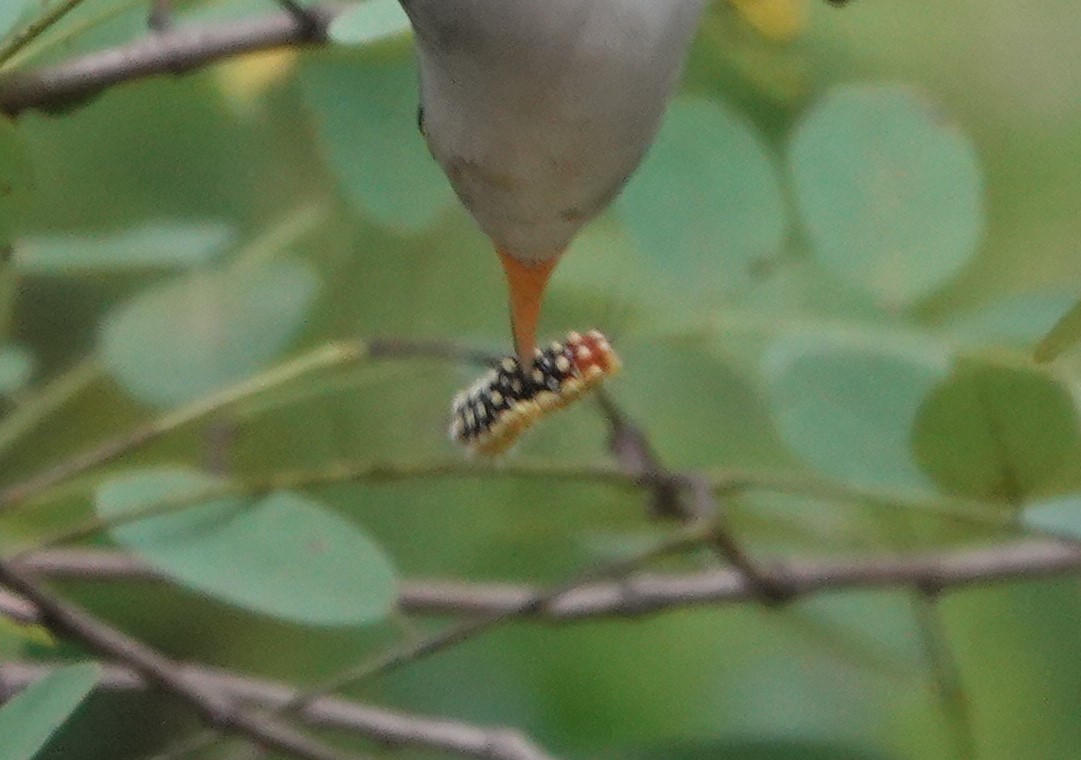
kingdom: Animalia
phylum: Arthropoda
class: Insecta
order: Lepidoptera
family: Megalopygidae
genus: Norape
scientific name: Norape cretata
